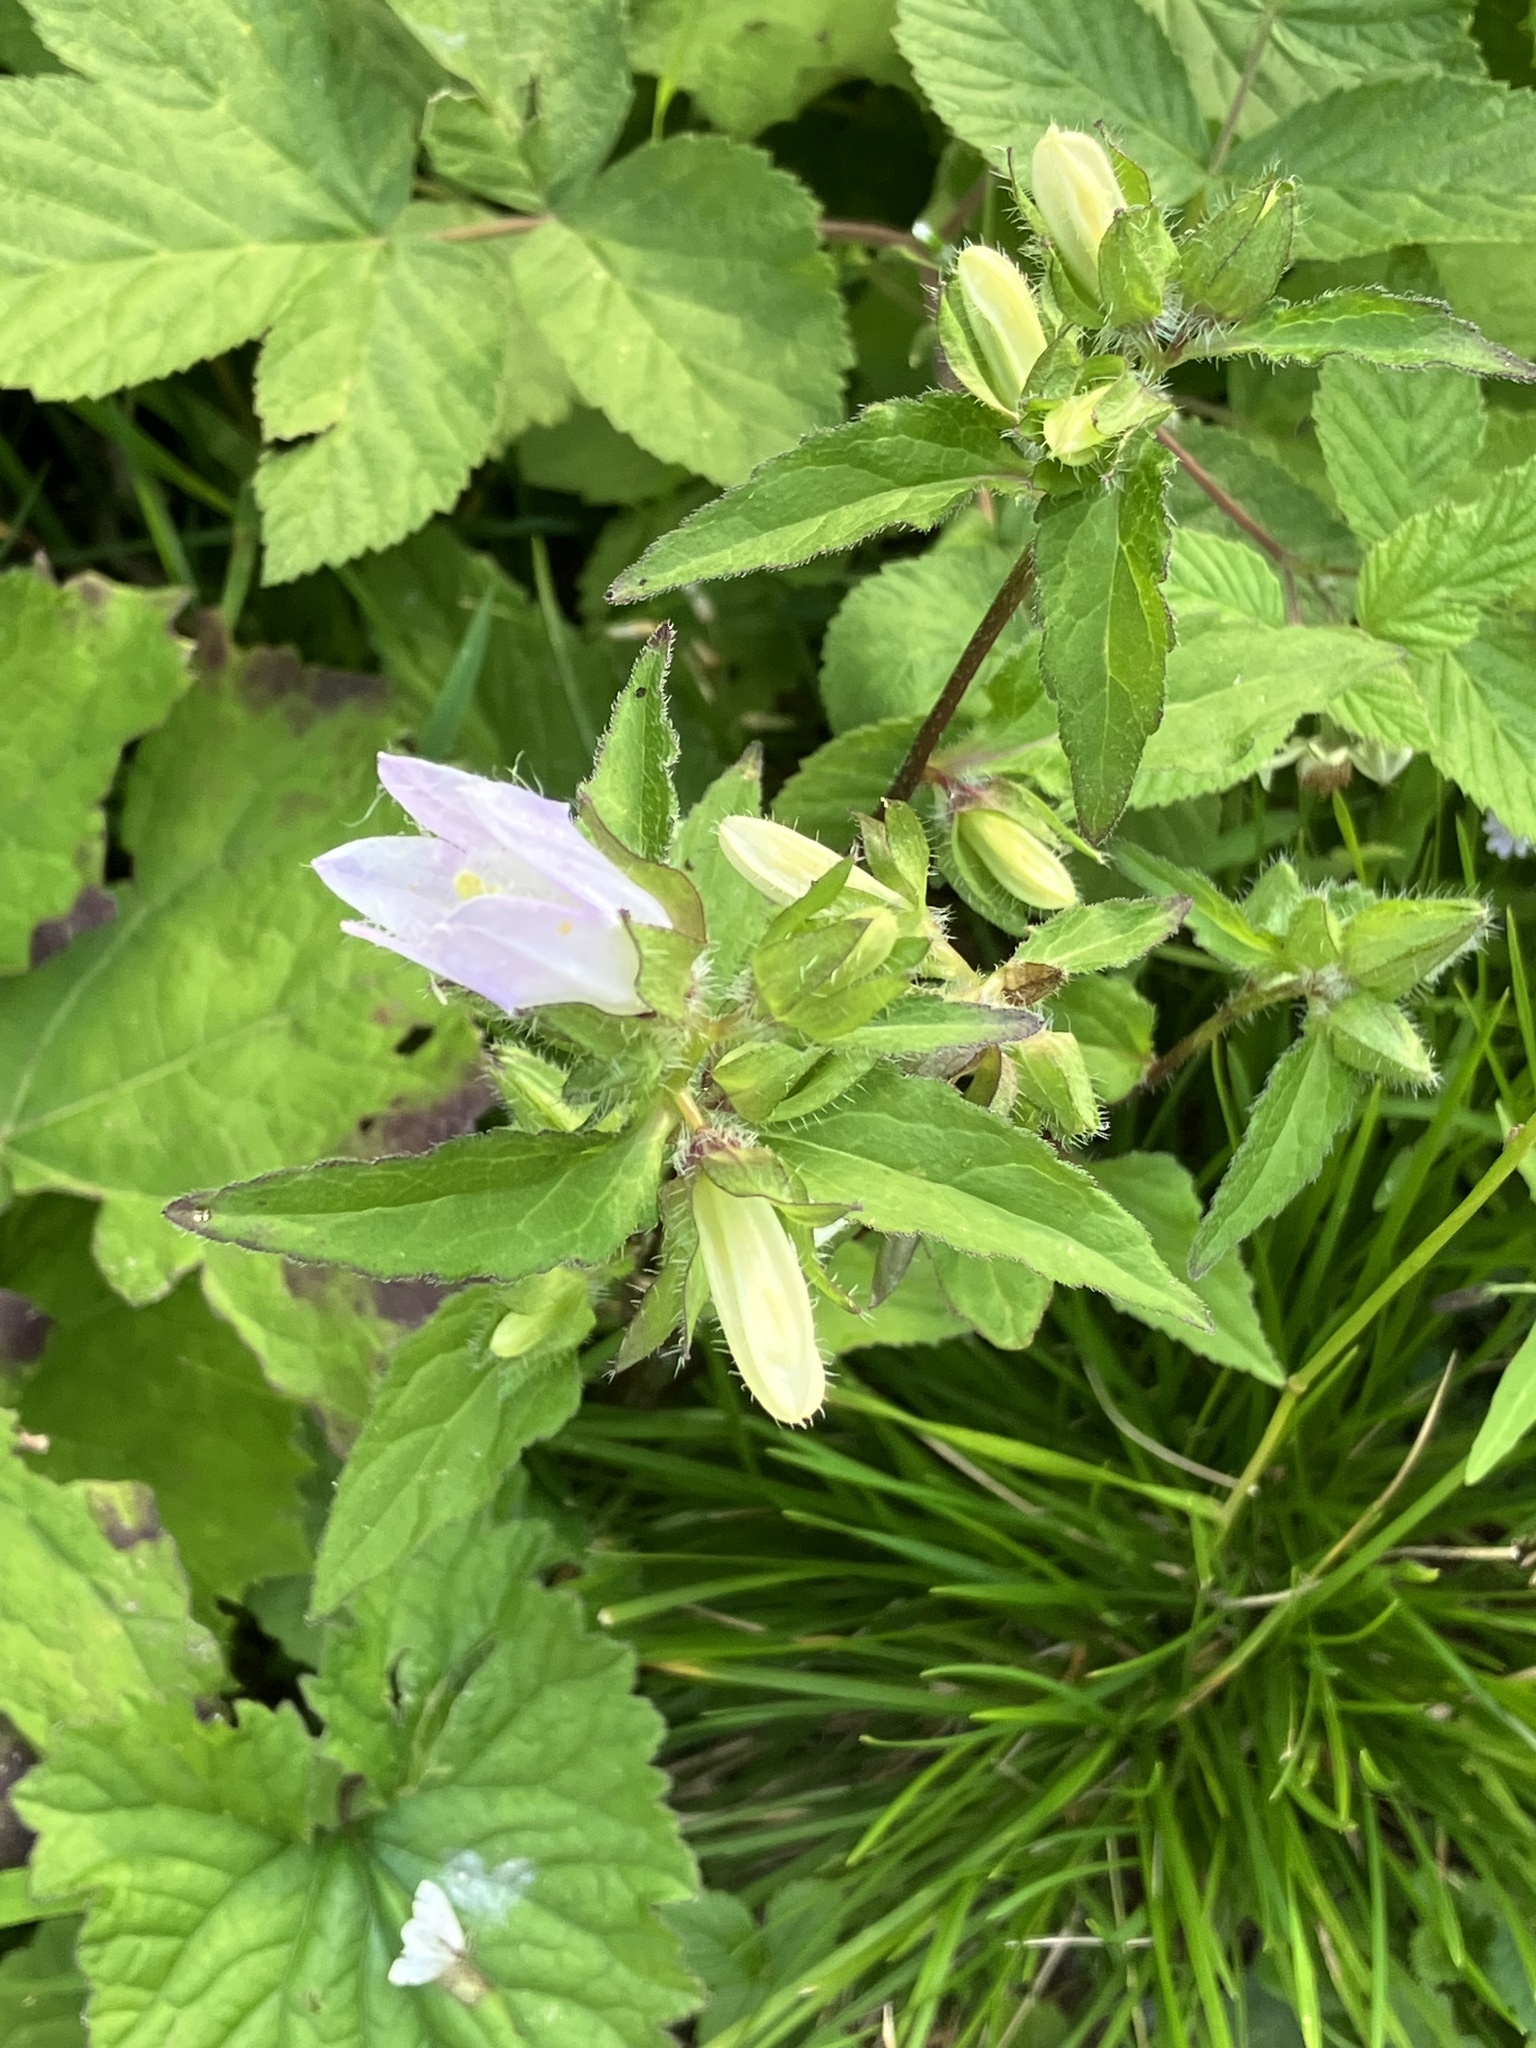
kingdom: Plantae
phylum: Tracheophyta
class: Magnoliopsida
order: Asterales
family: Campanulaceae
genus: Campanula
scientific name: Campanula trachelium
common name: Nettle-leaved bellflower
